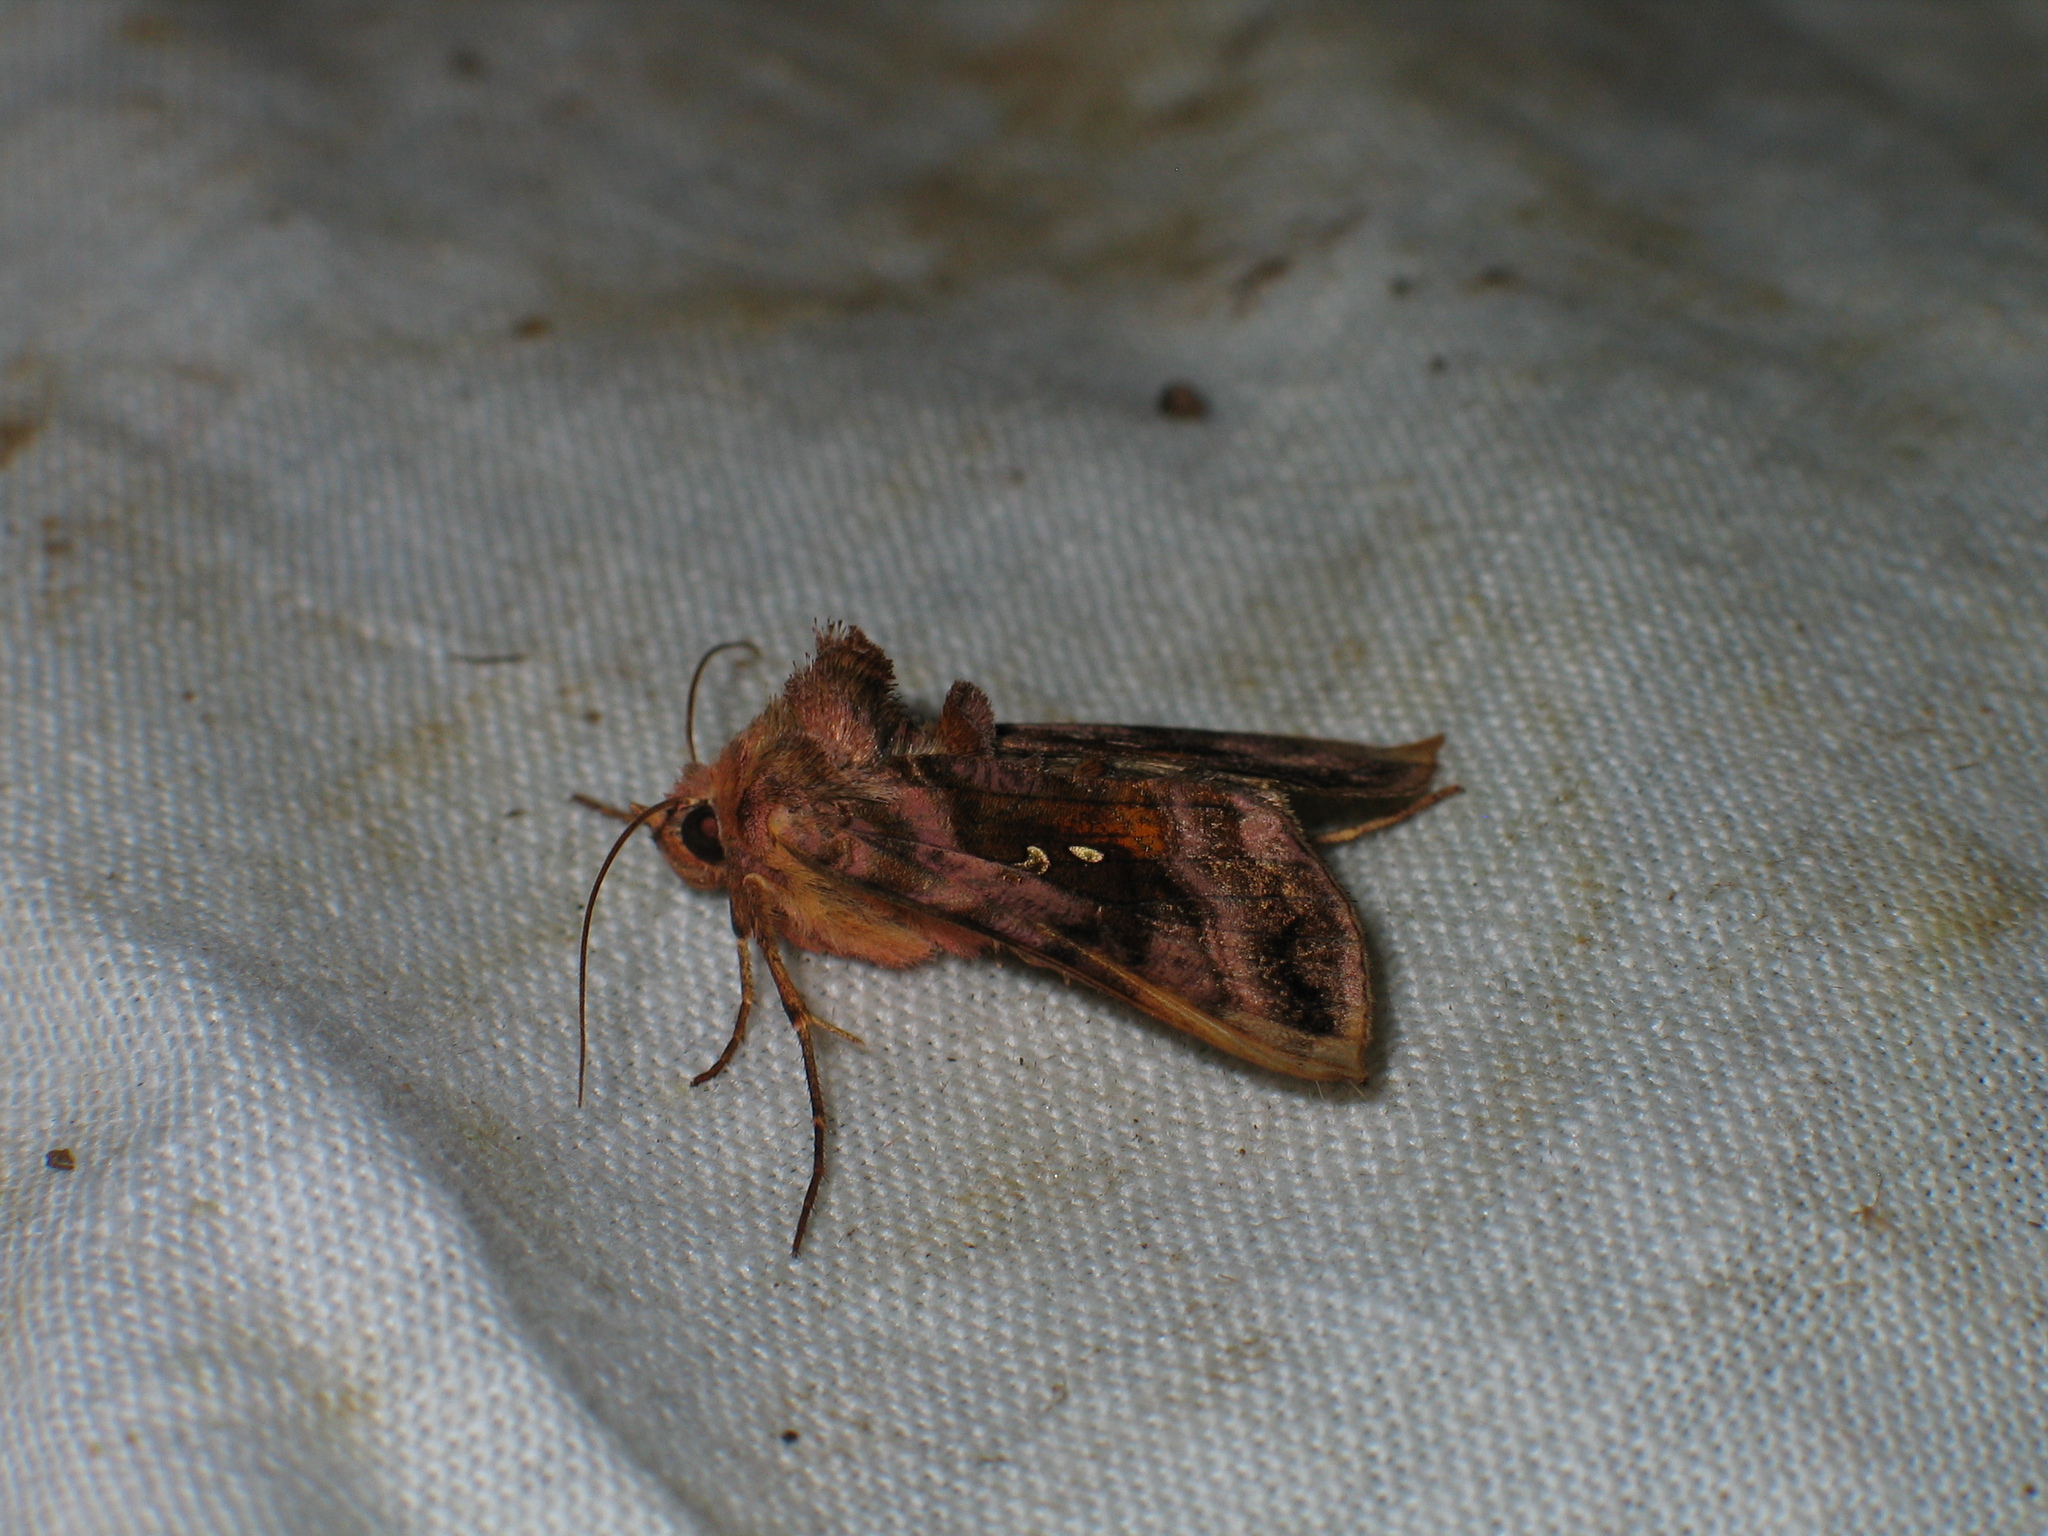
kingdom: Animalia
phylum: Arthropoda
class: Insecta
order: Lepidoptera
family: Noctuidae
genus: Autographa
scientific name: Autographa jota
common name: Plain golden y
